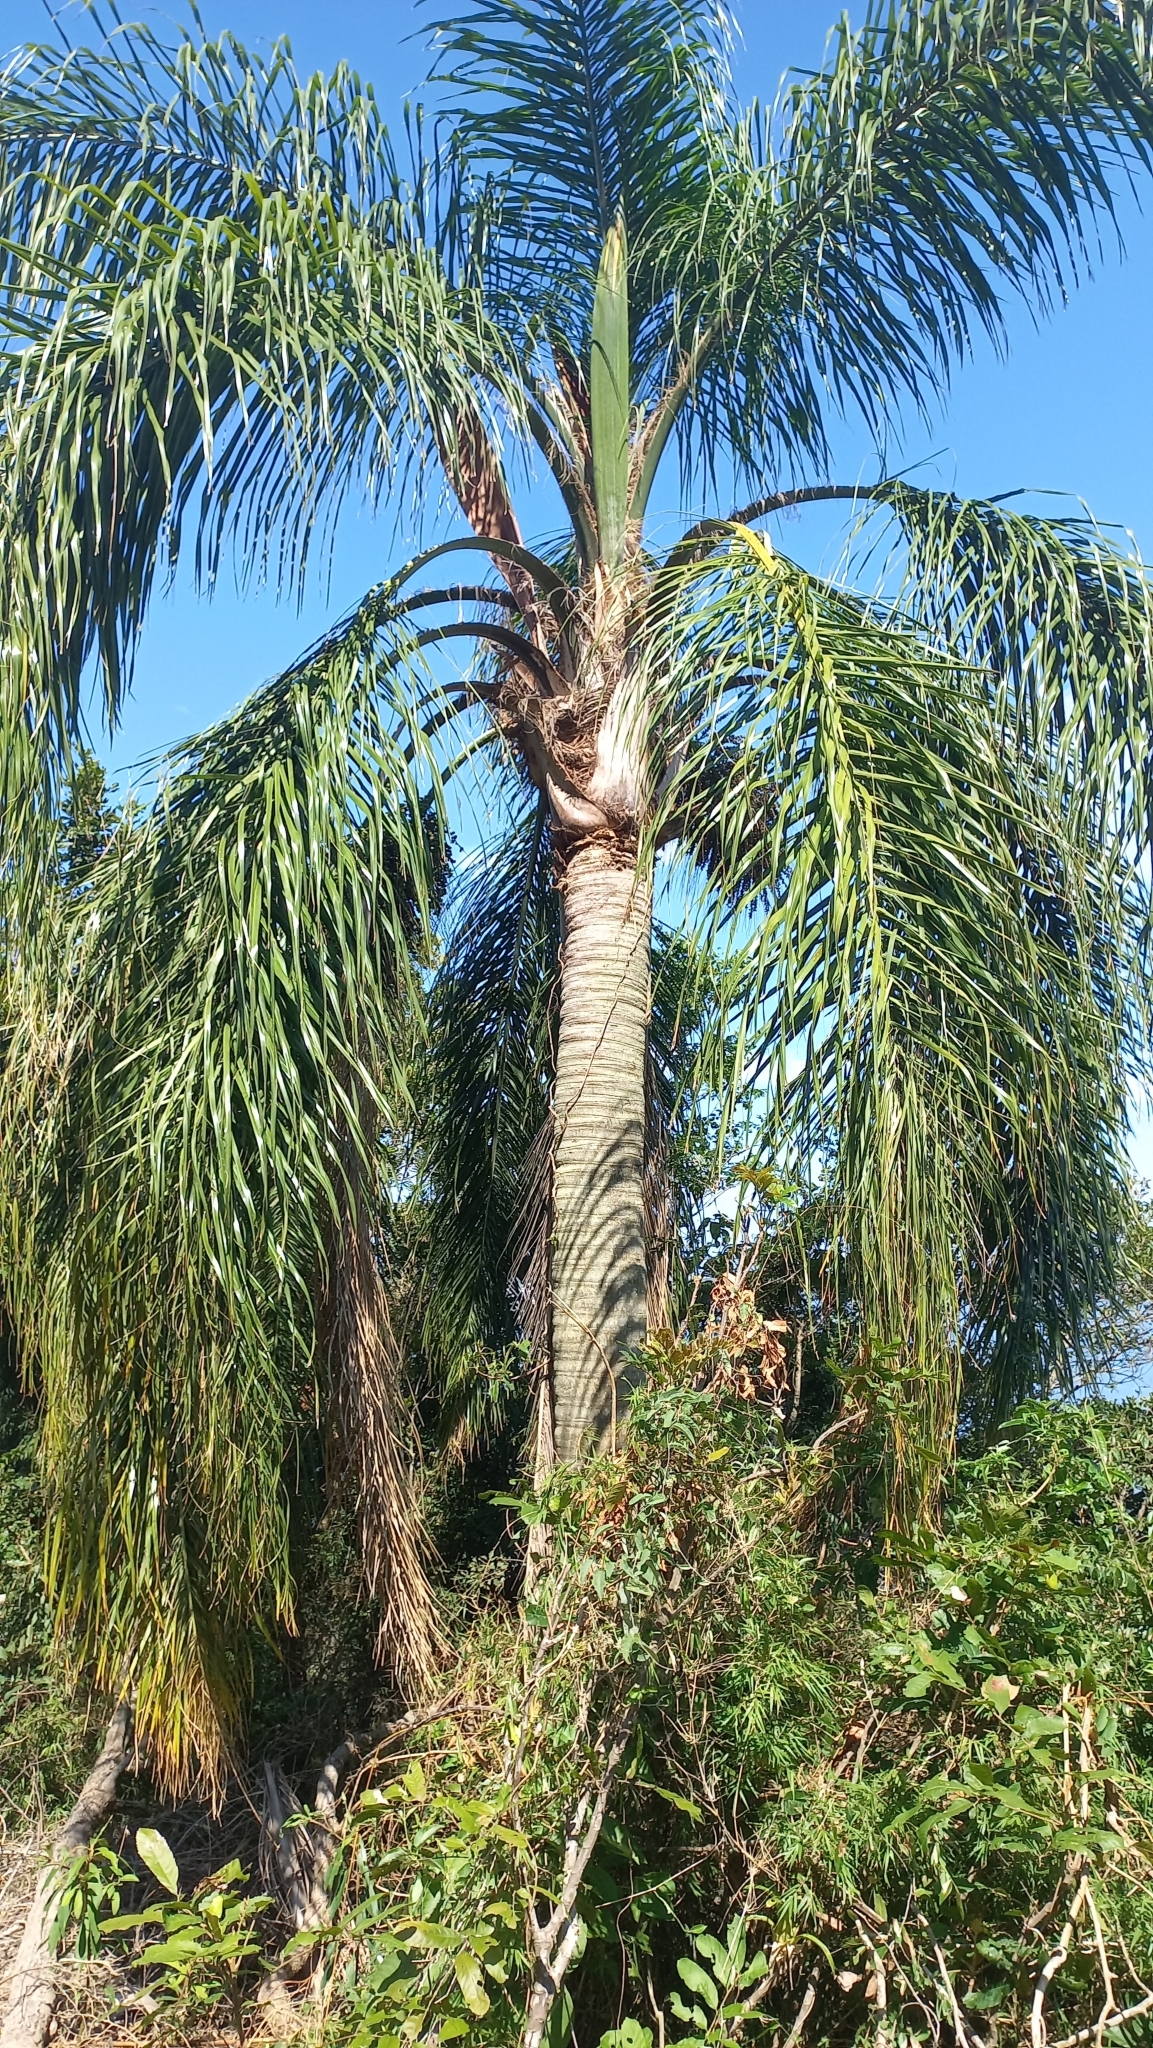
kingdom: Plantae
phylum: Tracheophyta
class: Liliopsida
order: Arecales
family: Arecaceae
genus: Syagrus
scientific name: Syagrus romanzoffiana
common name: Queen palm
